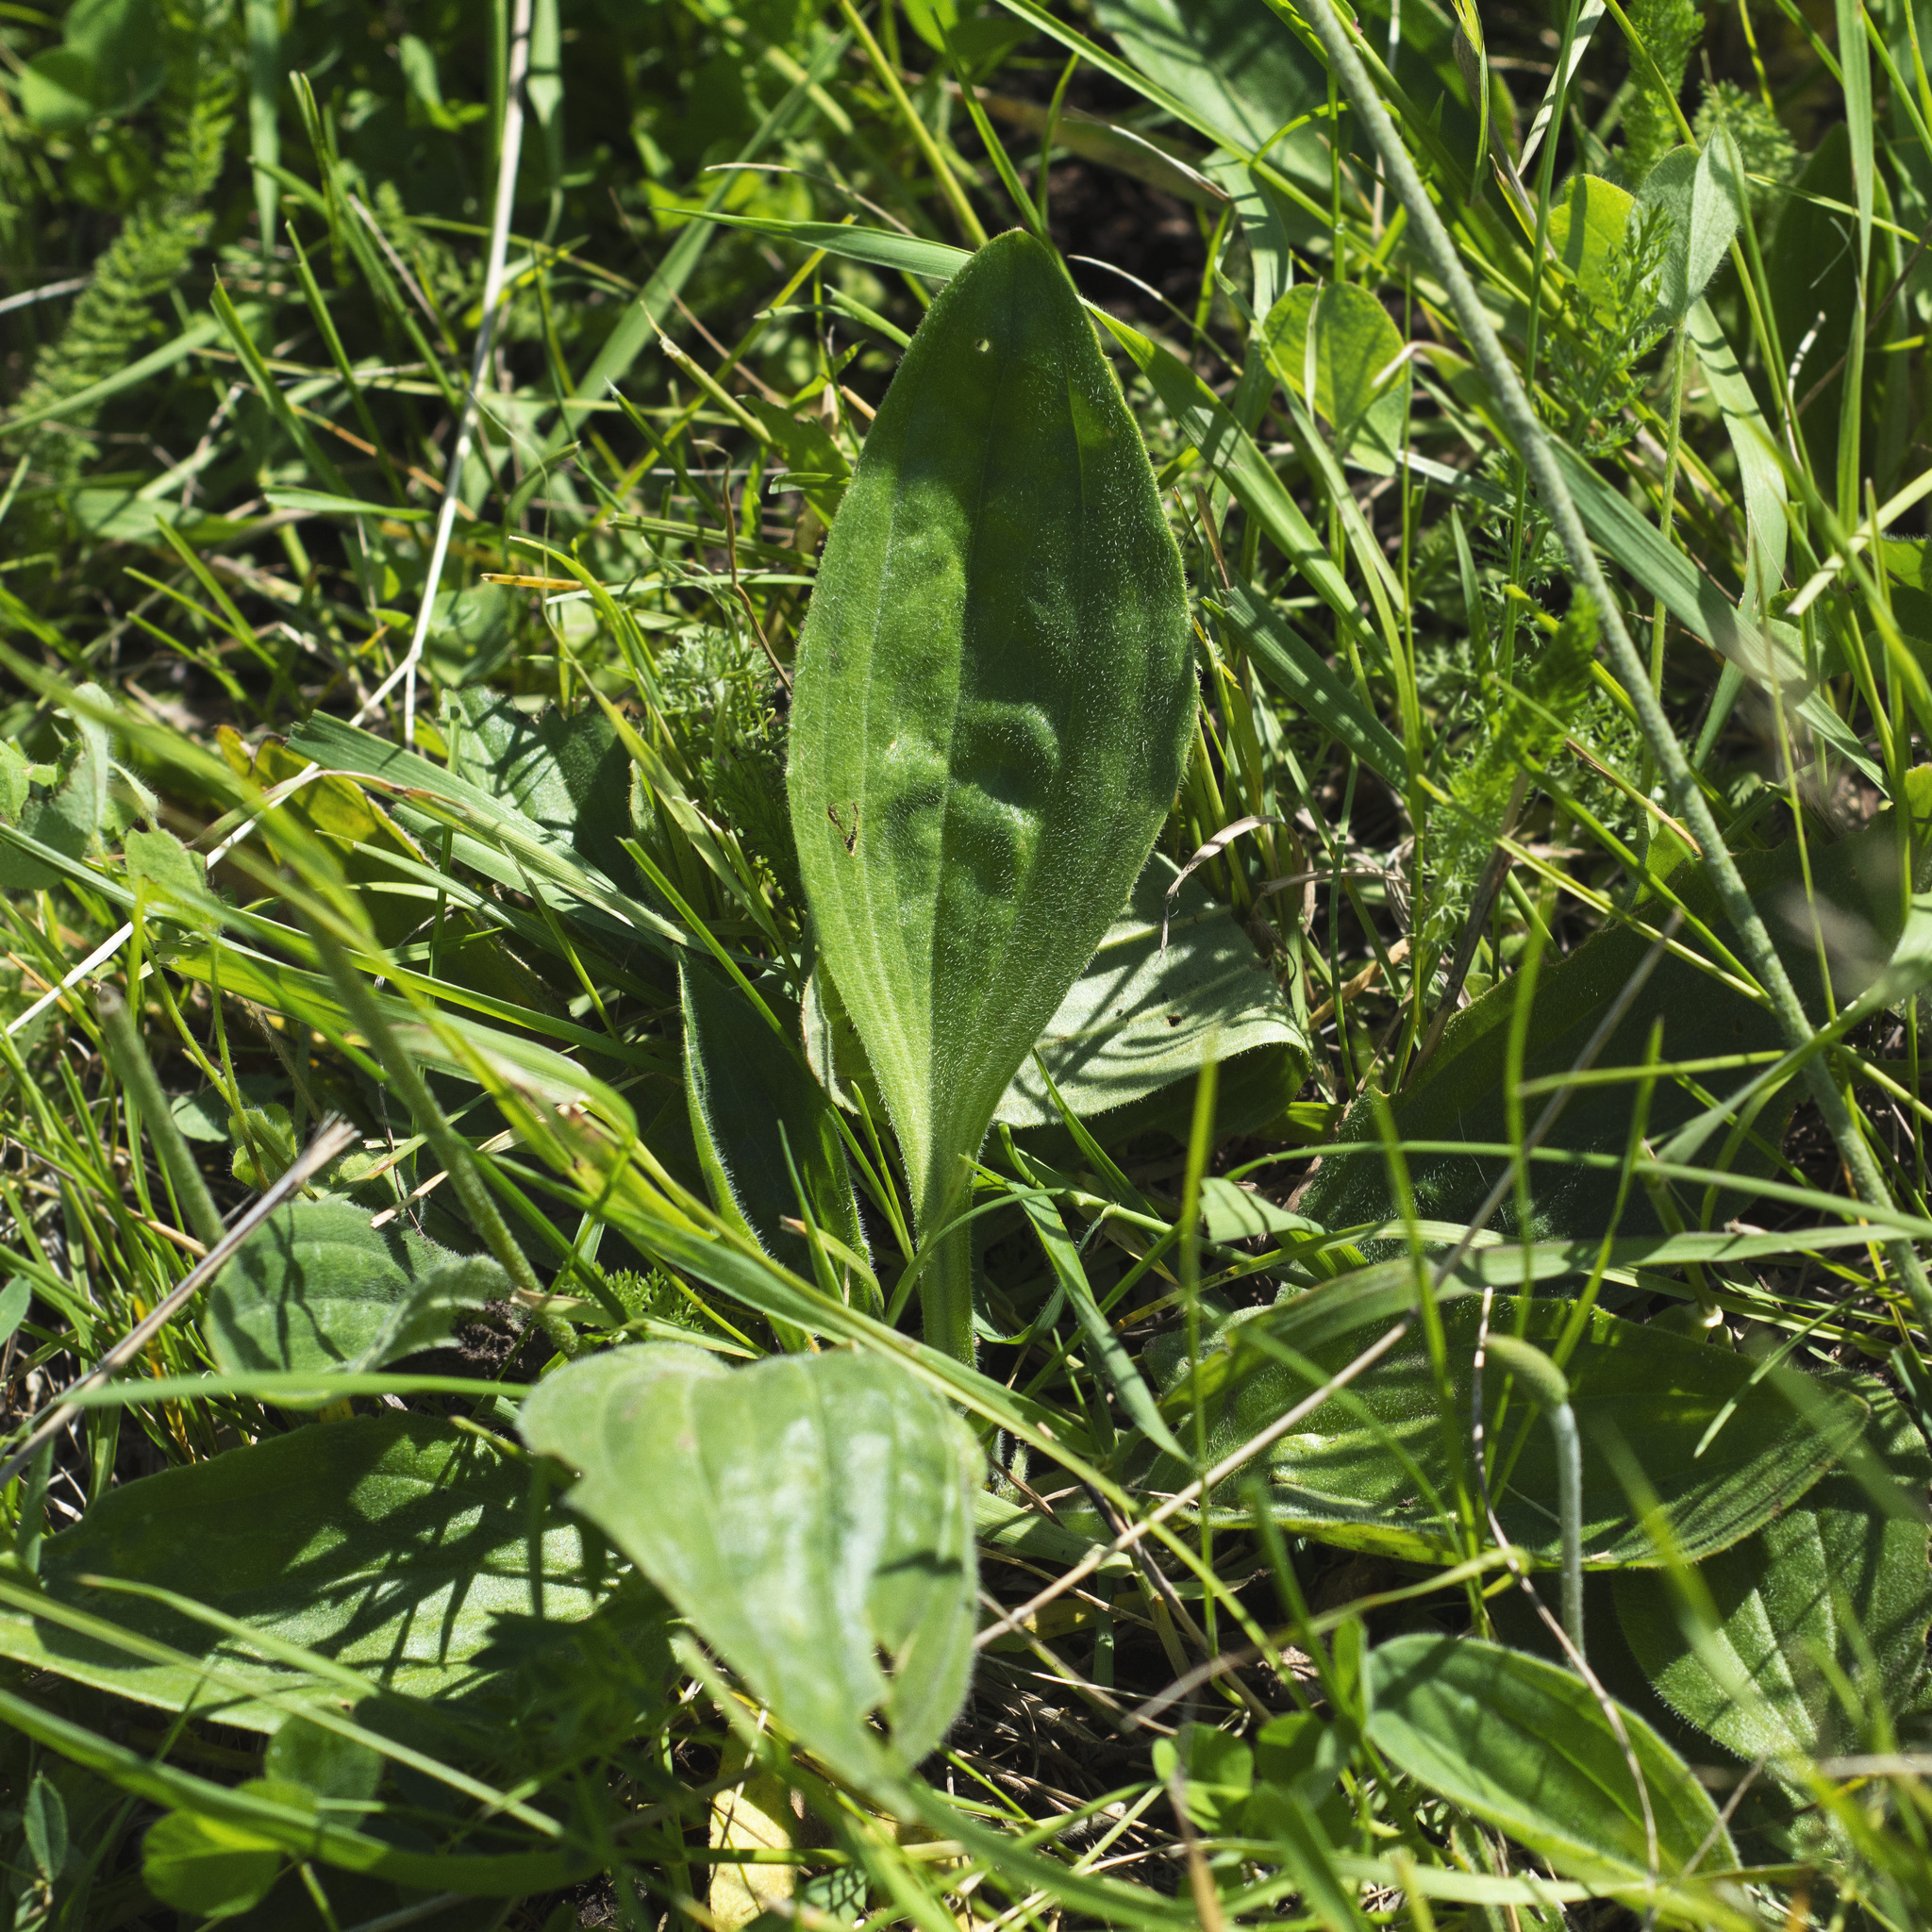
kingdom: Plantae
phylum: Tracheophyta
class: Magnoliopsida
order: Lamiales
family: Plantaginaceae
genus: Plantago
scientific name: Plantago media
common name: Hoary plantain
